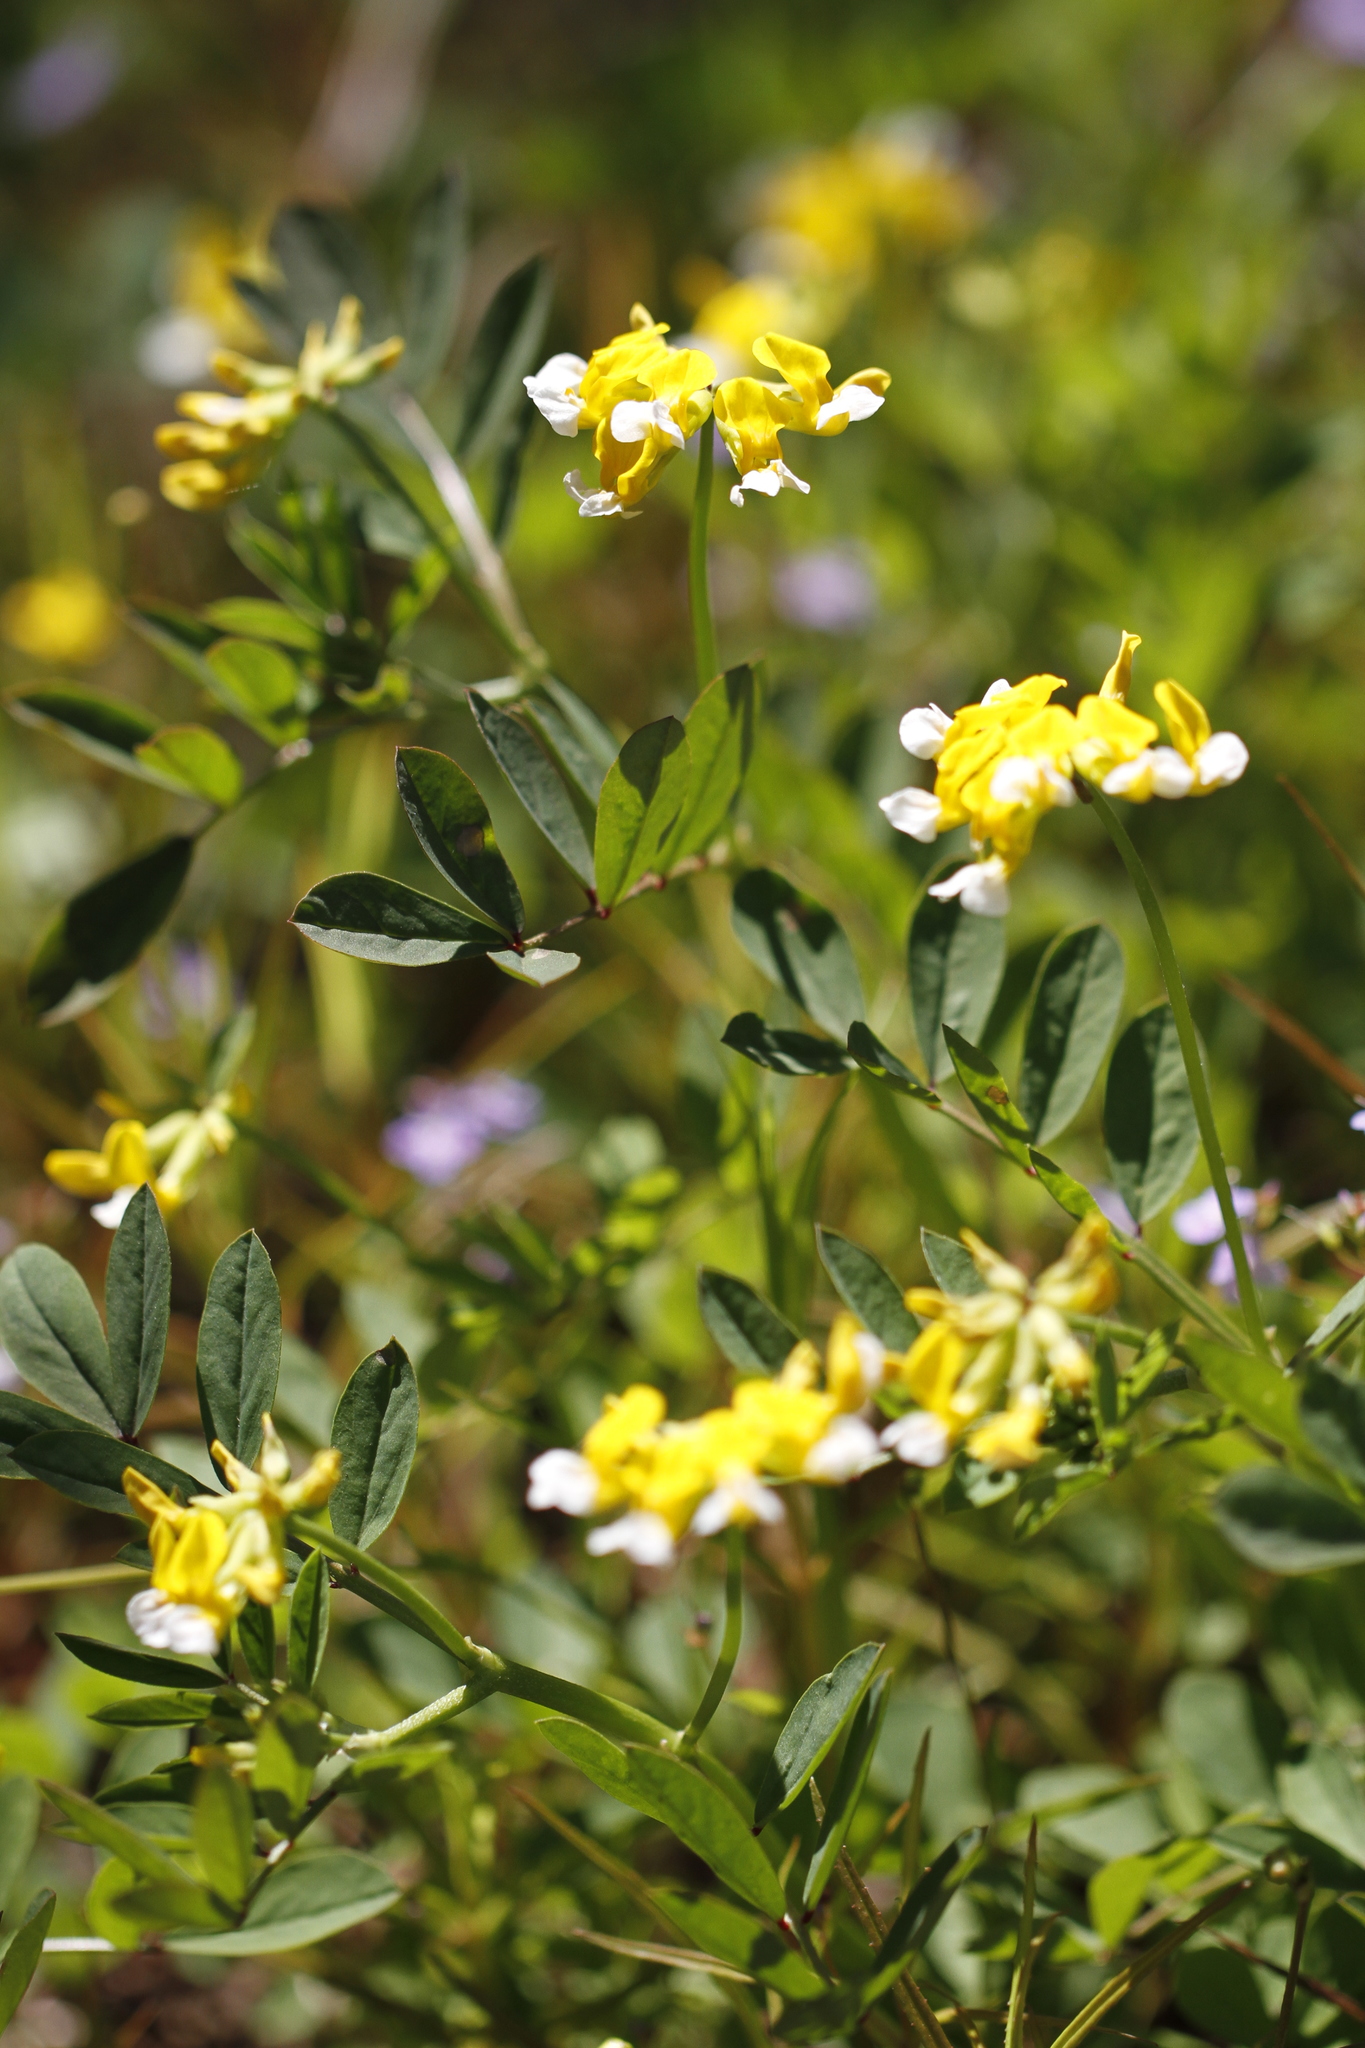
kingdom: Plantae
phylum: Tracheophyta
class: Magnoliopsida
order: Fabales
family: Fabaceae
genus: Hosackia
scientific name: Hosackia pinnata
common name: Bog bird's-foot trefoil
